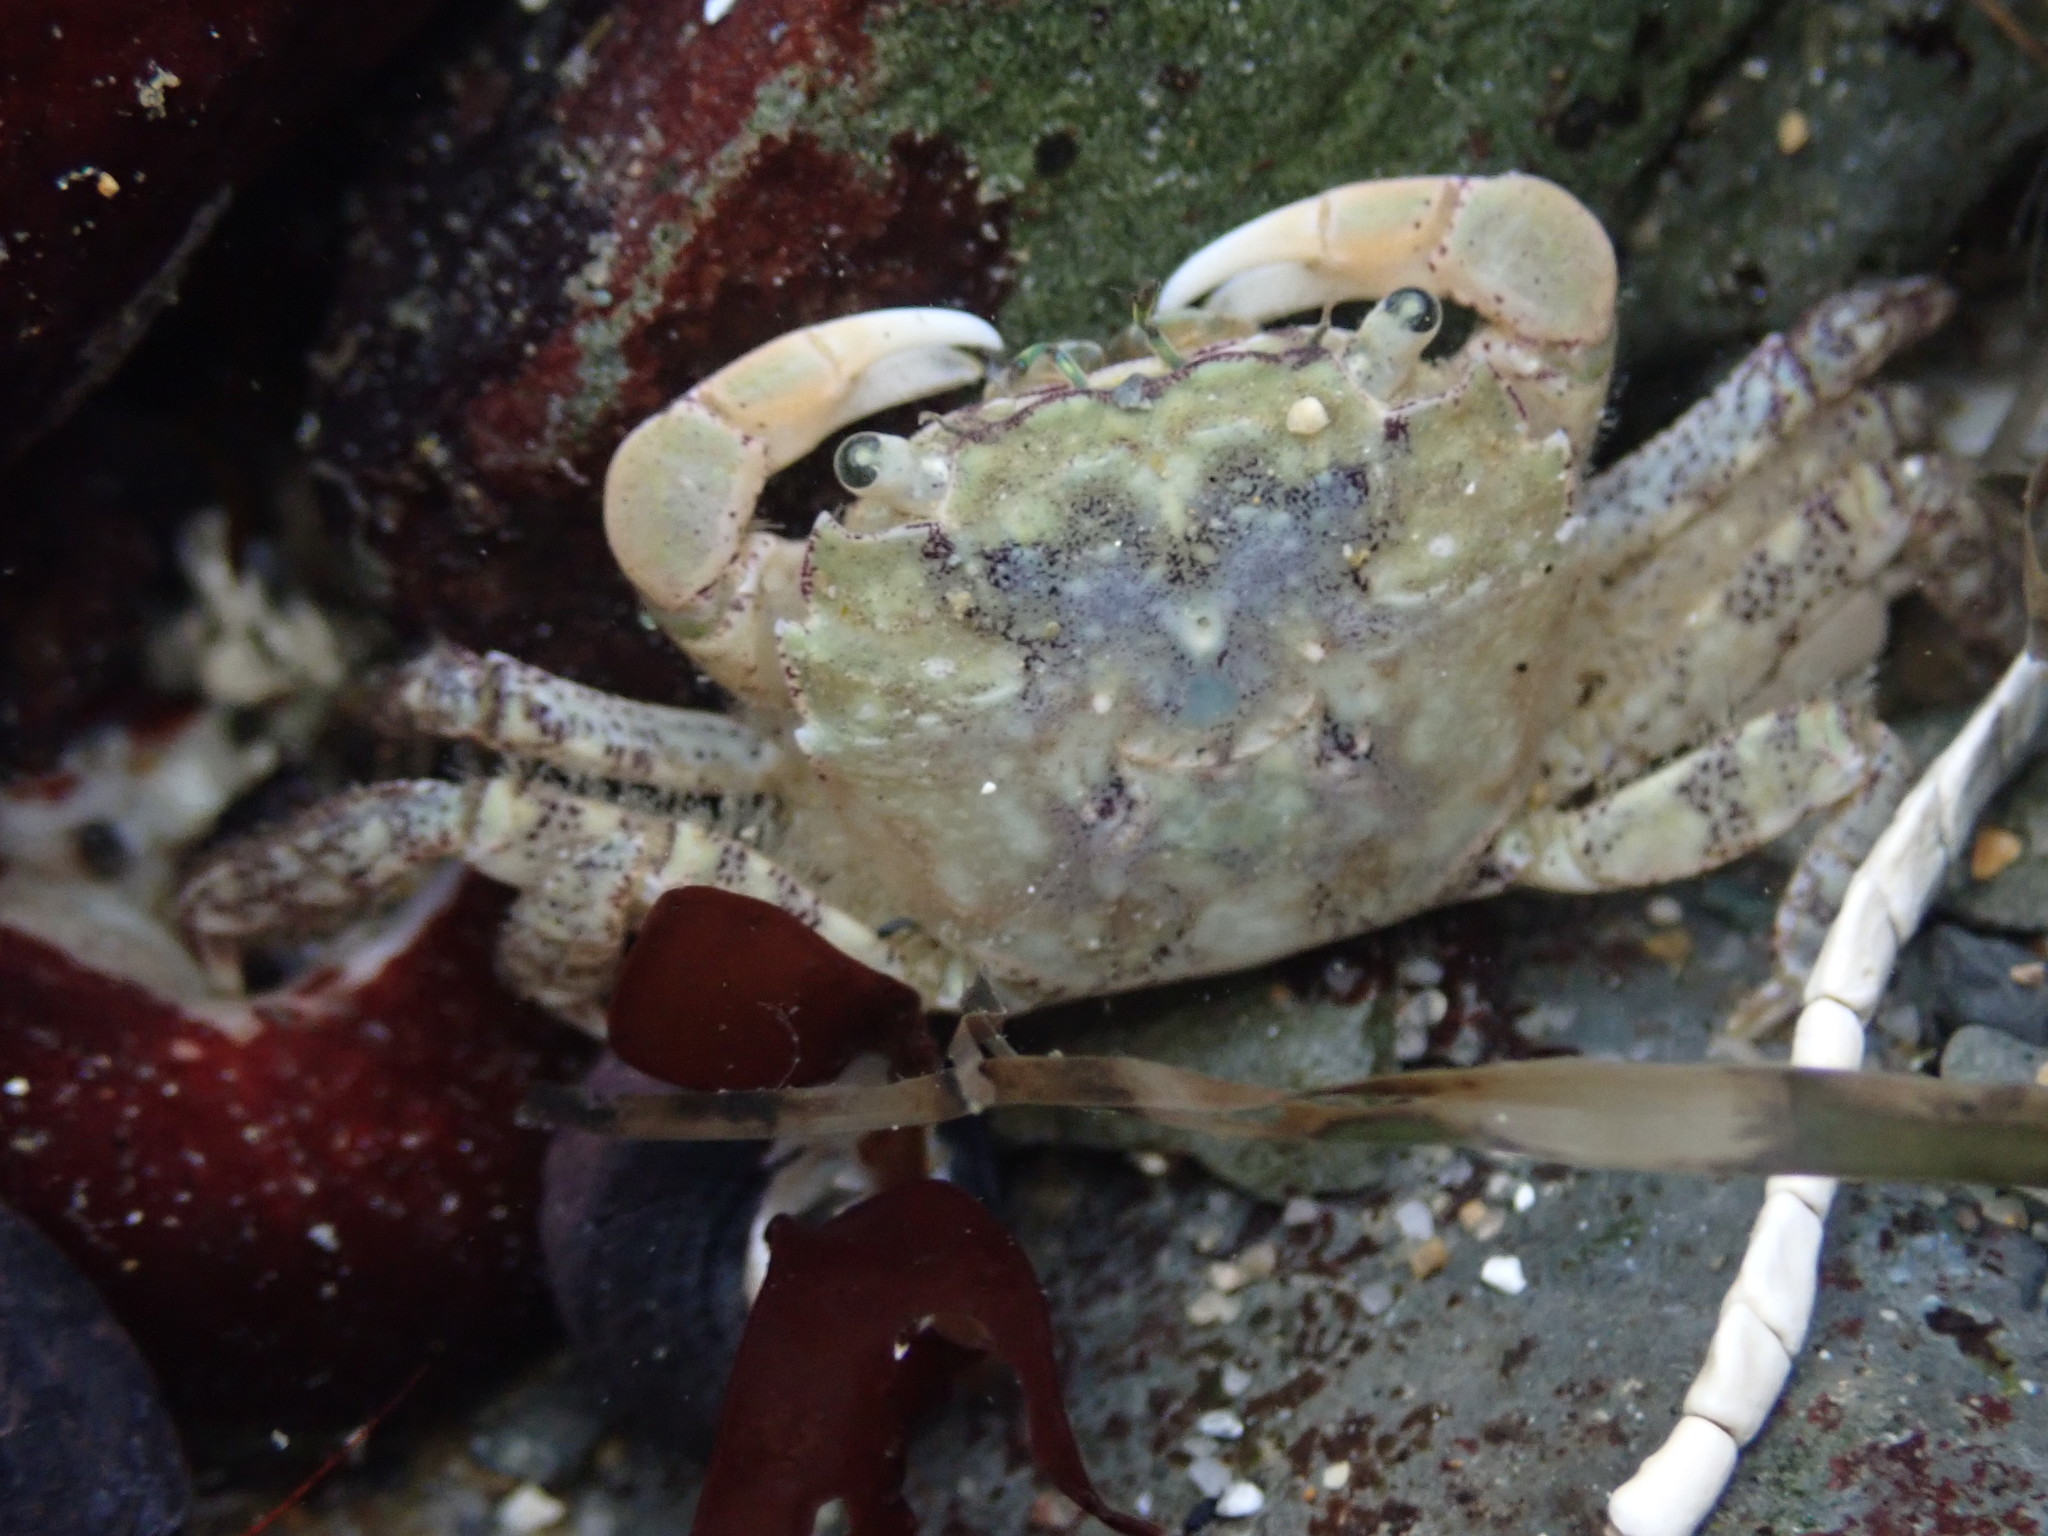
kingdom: Animalia
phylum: Arthropoda
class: Malacostraca
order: Decapoda
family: Varunidae
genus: Hemigrapsus
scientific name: Hemigrapsus oregonensis
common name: Yellow shore crab
